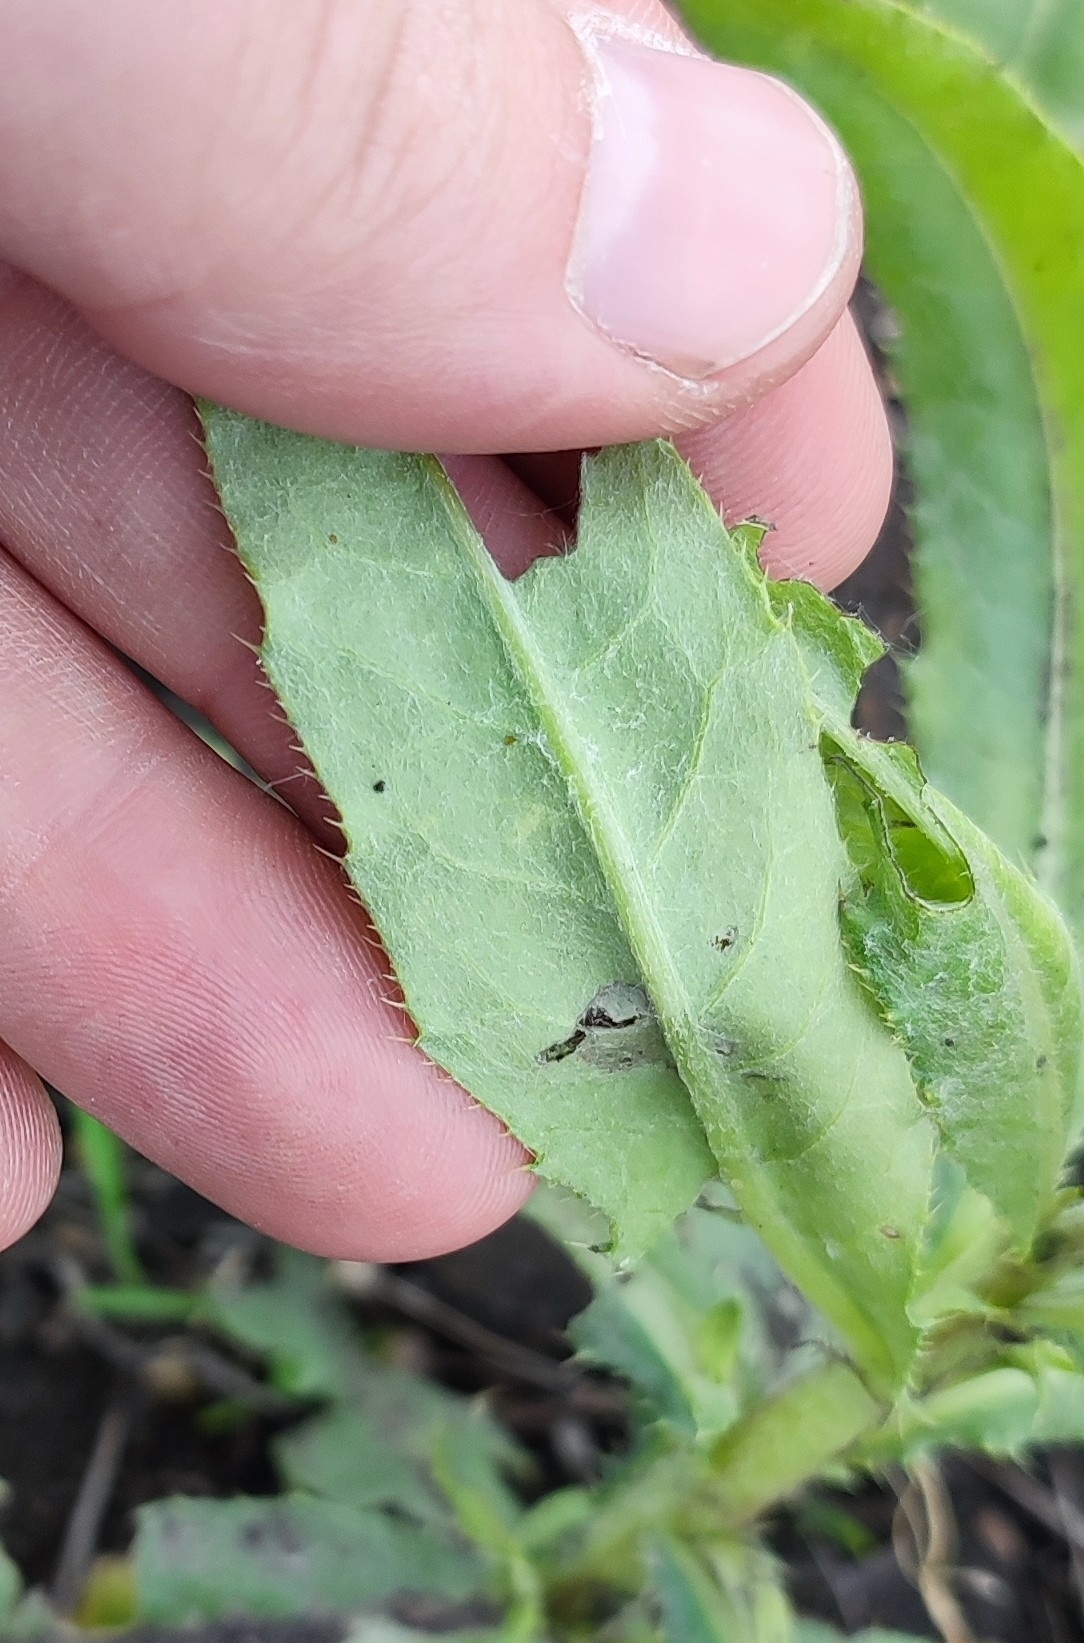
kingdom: Plantae
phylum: Tracheophyta
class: Magnoliopsida
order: Asterales
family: Asteraceae
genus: Cirsium
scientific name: Cirsium arvense
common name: Creeping thistle
